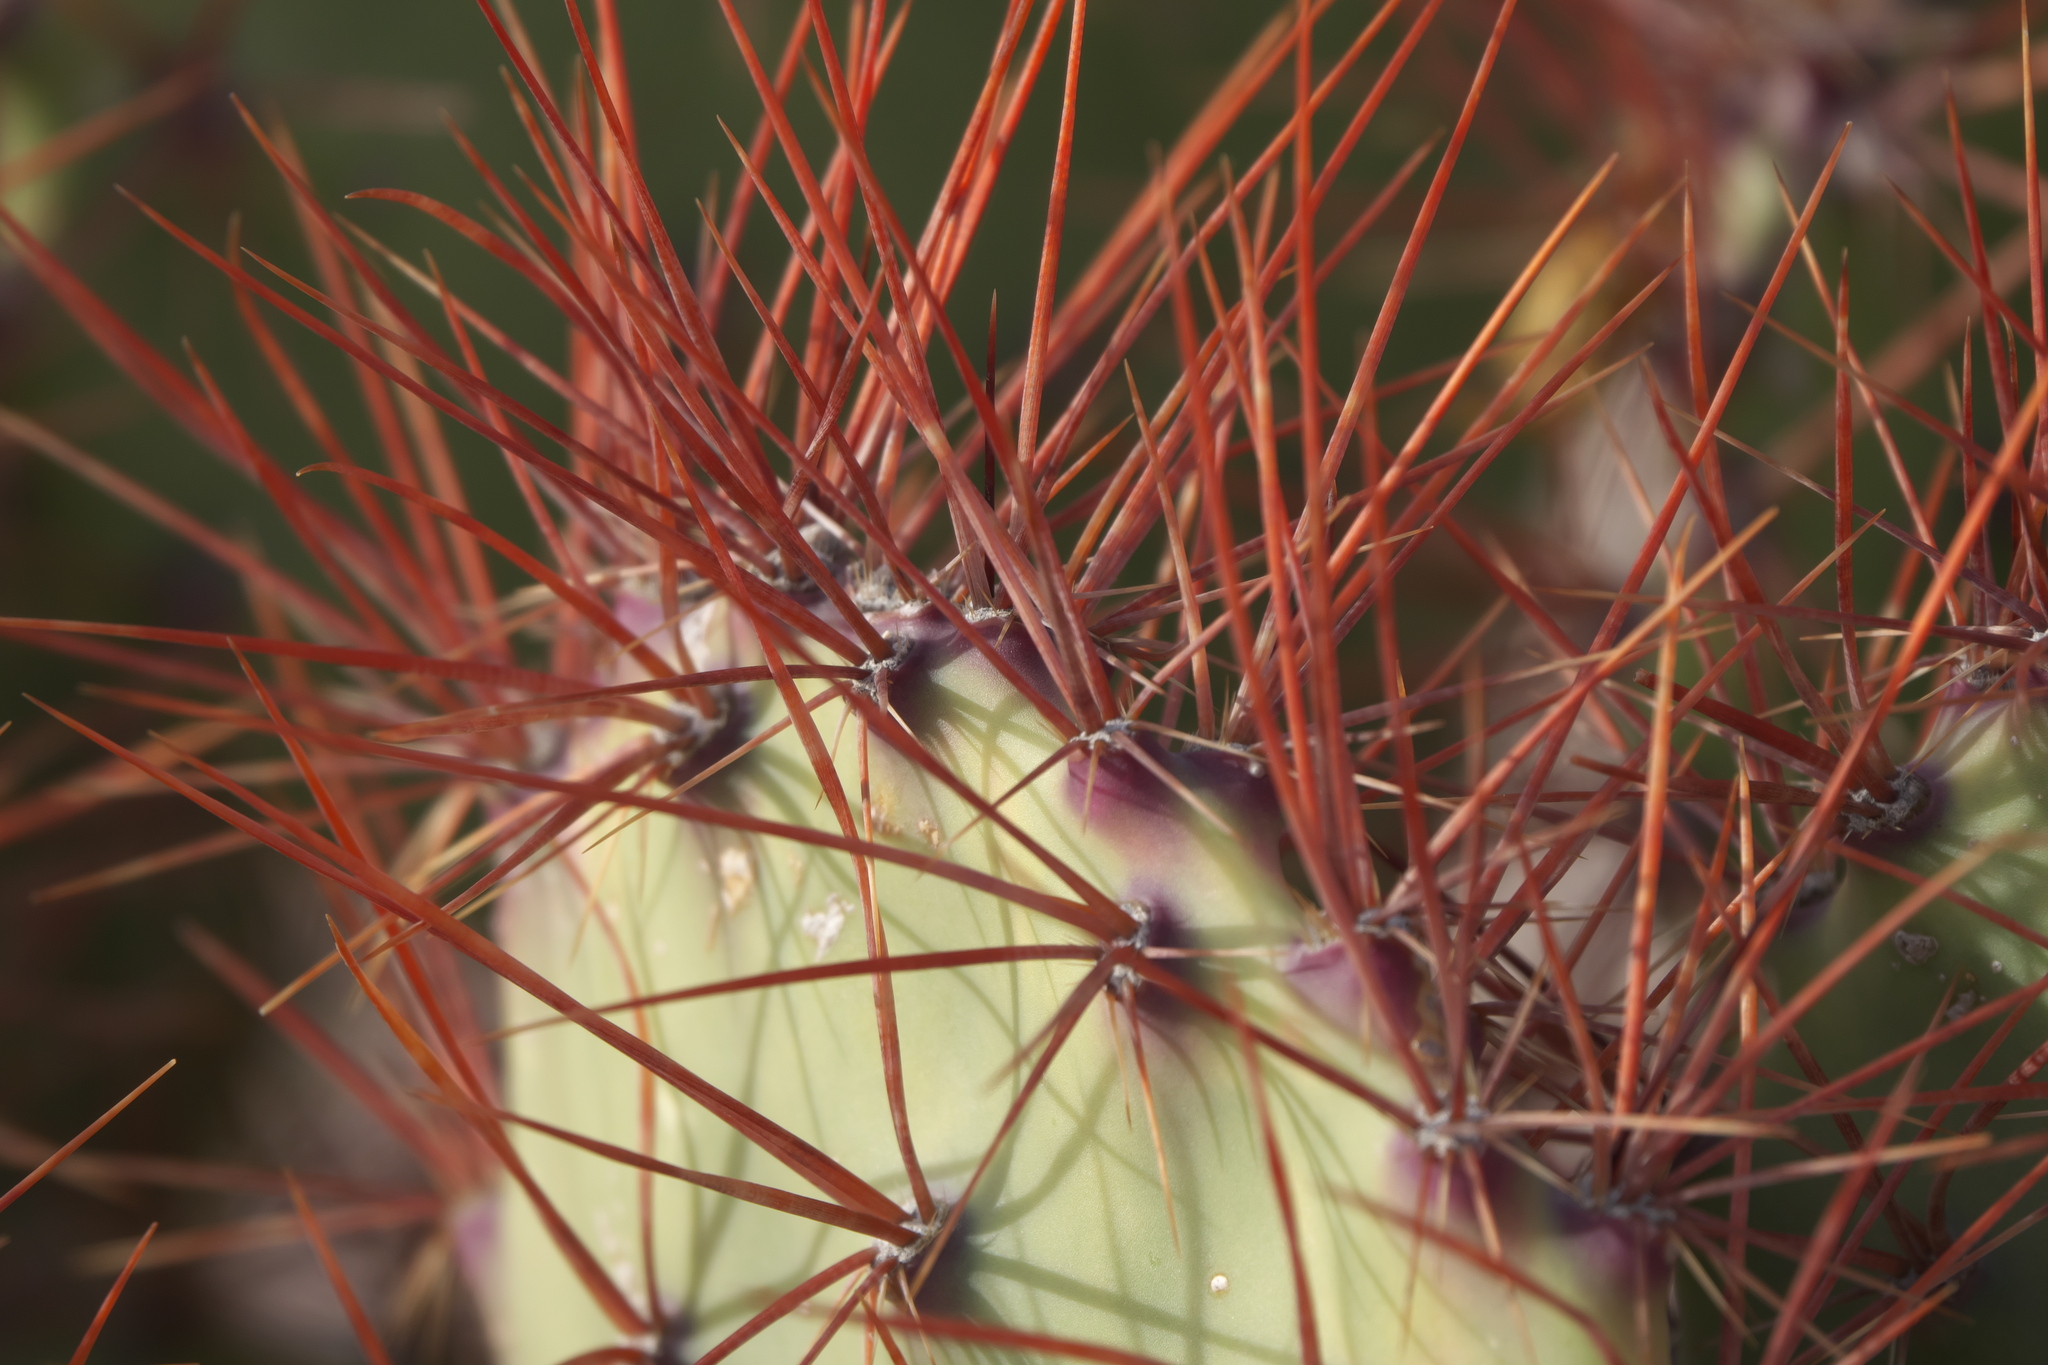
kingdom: Plantae
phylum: Tracheophyta
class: Magnoliopsida
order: Caryophyllales
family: Cactaceae
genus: Opuntia
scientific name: Opuntia spinosibacca
